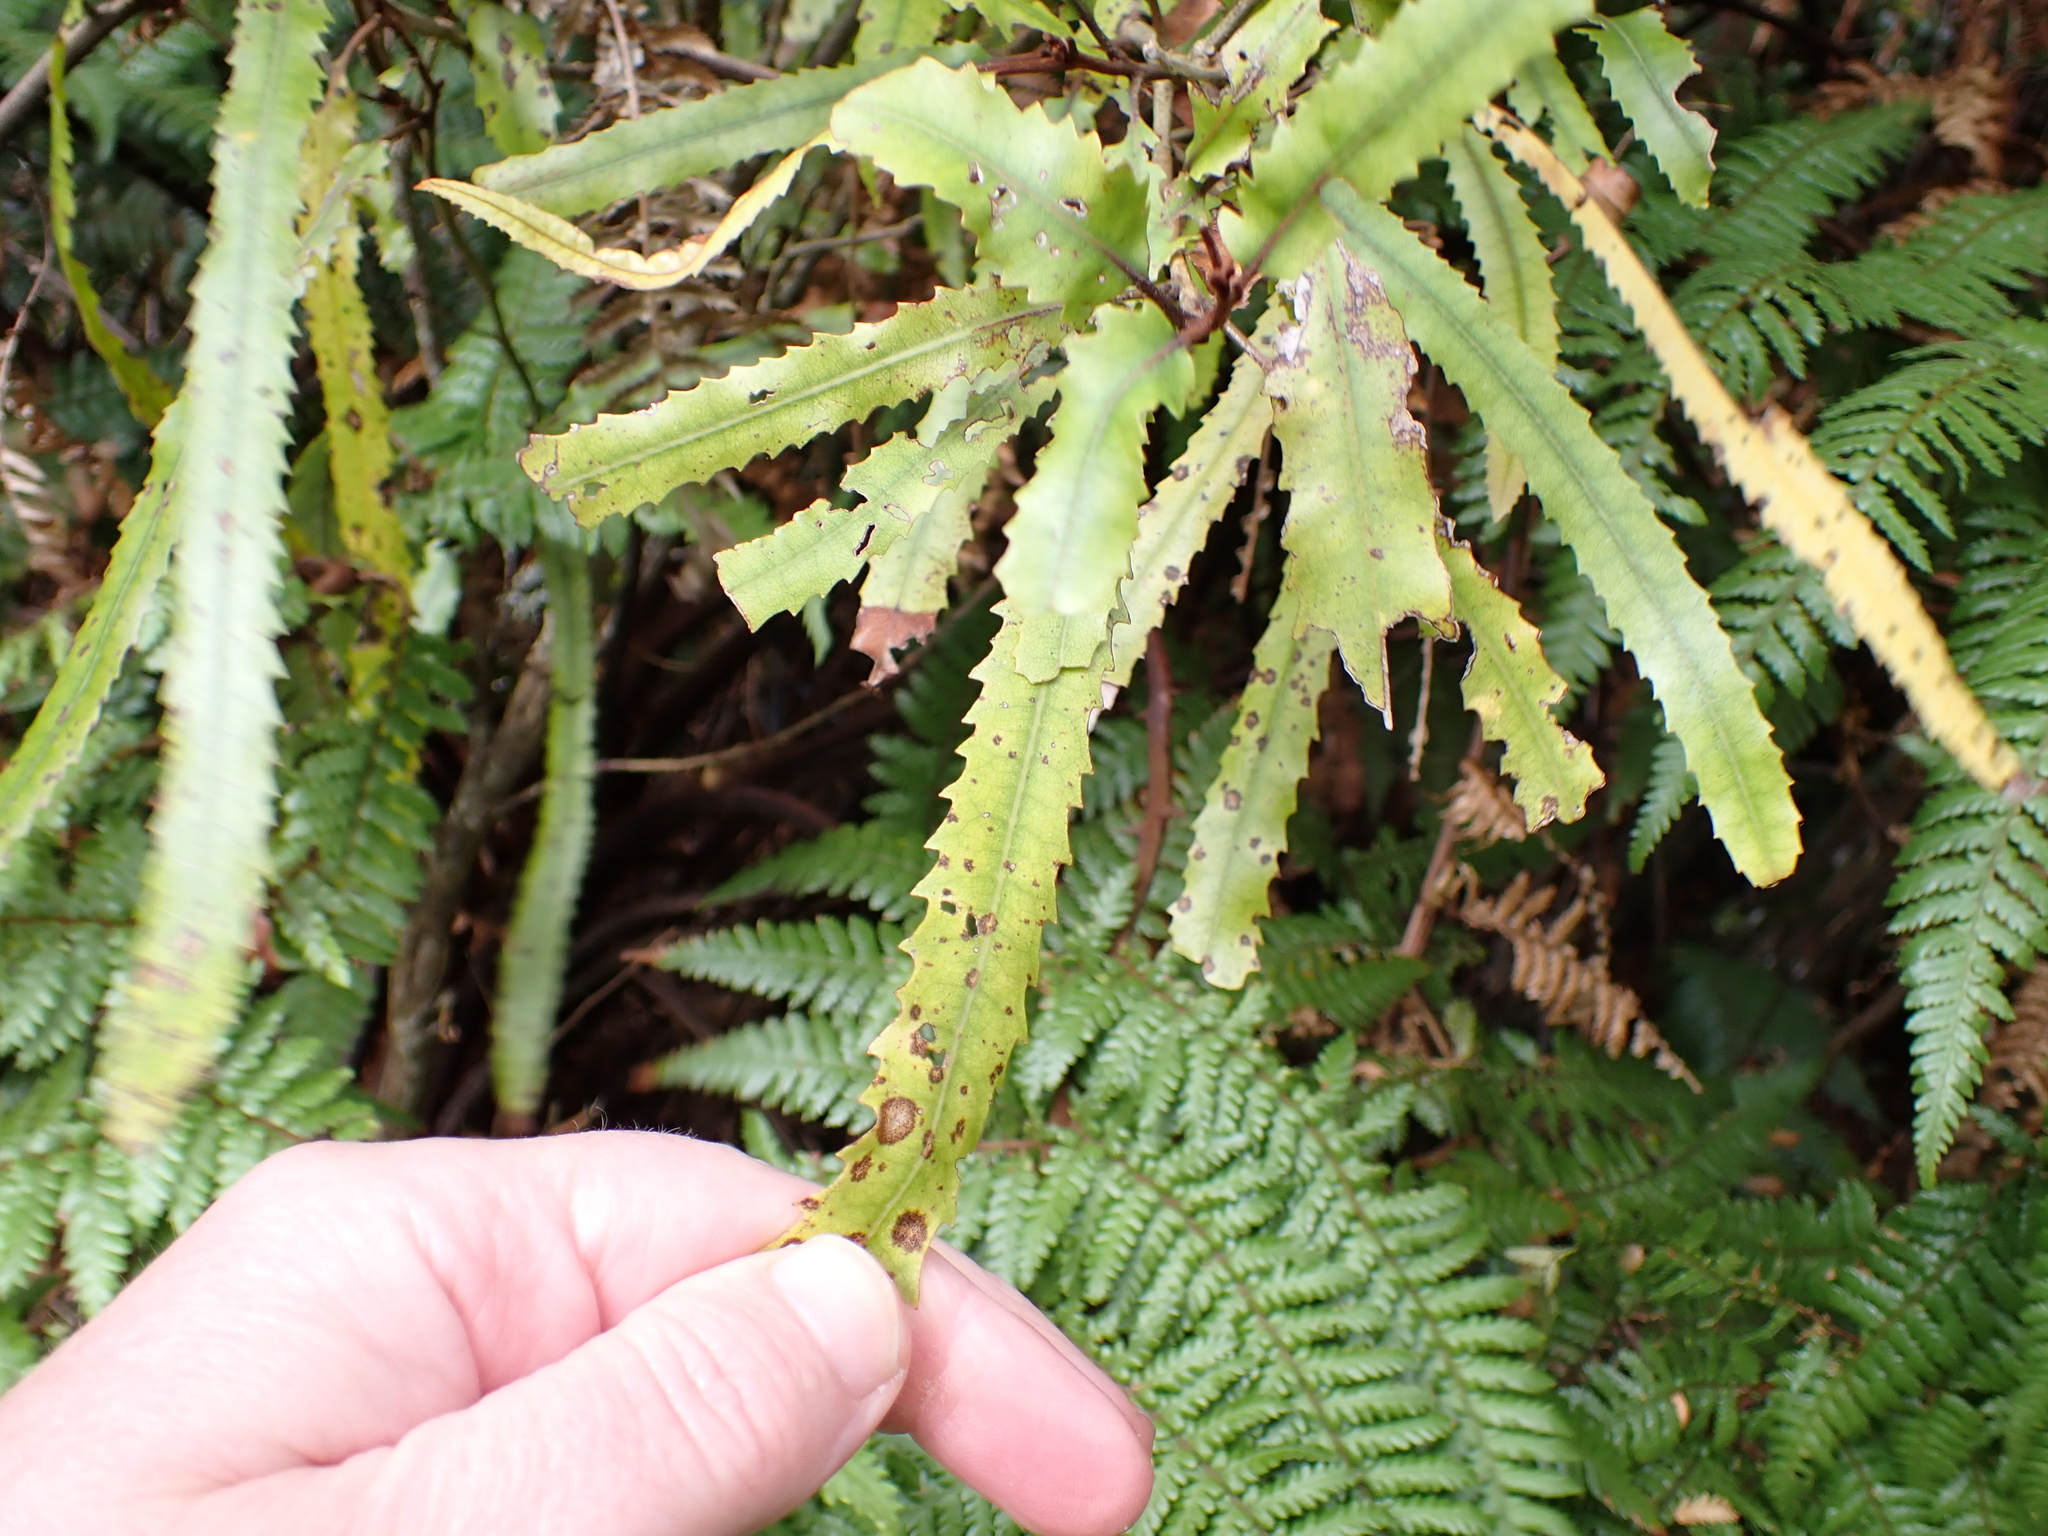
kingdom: Plantae
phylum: Tracheophyta
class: Magnoliopsida
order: Proteales
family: Proteaceae
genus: Knightia
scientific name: Knightia excelsa
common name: New zealand-honeysuckle
